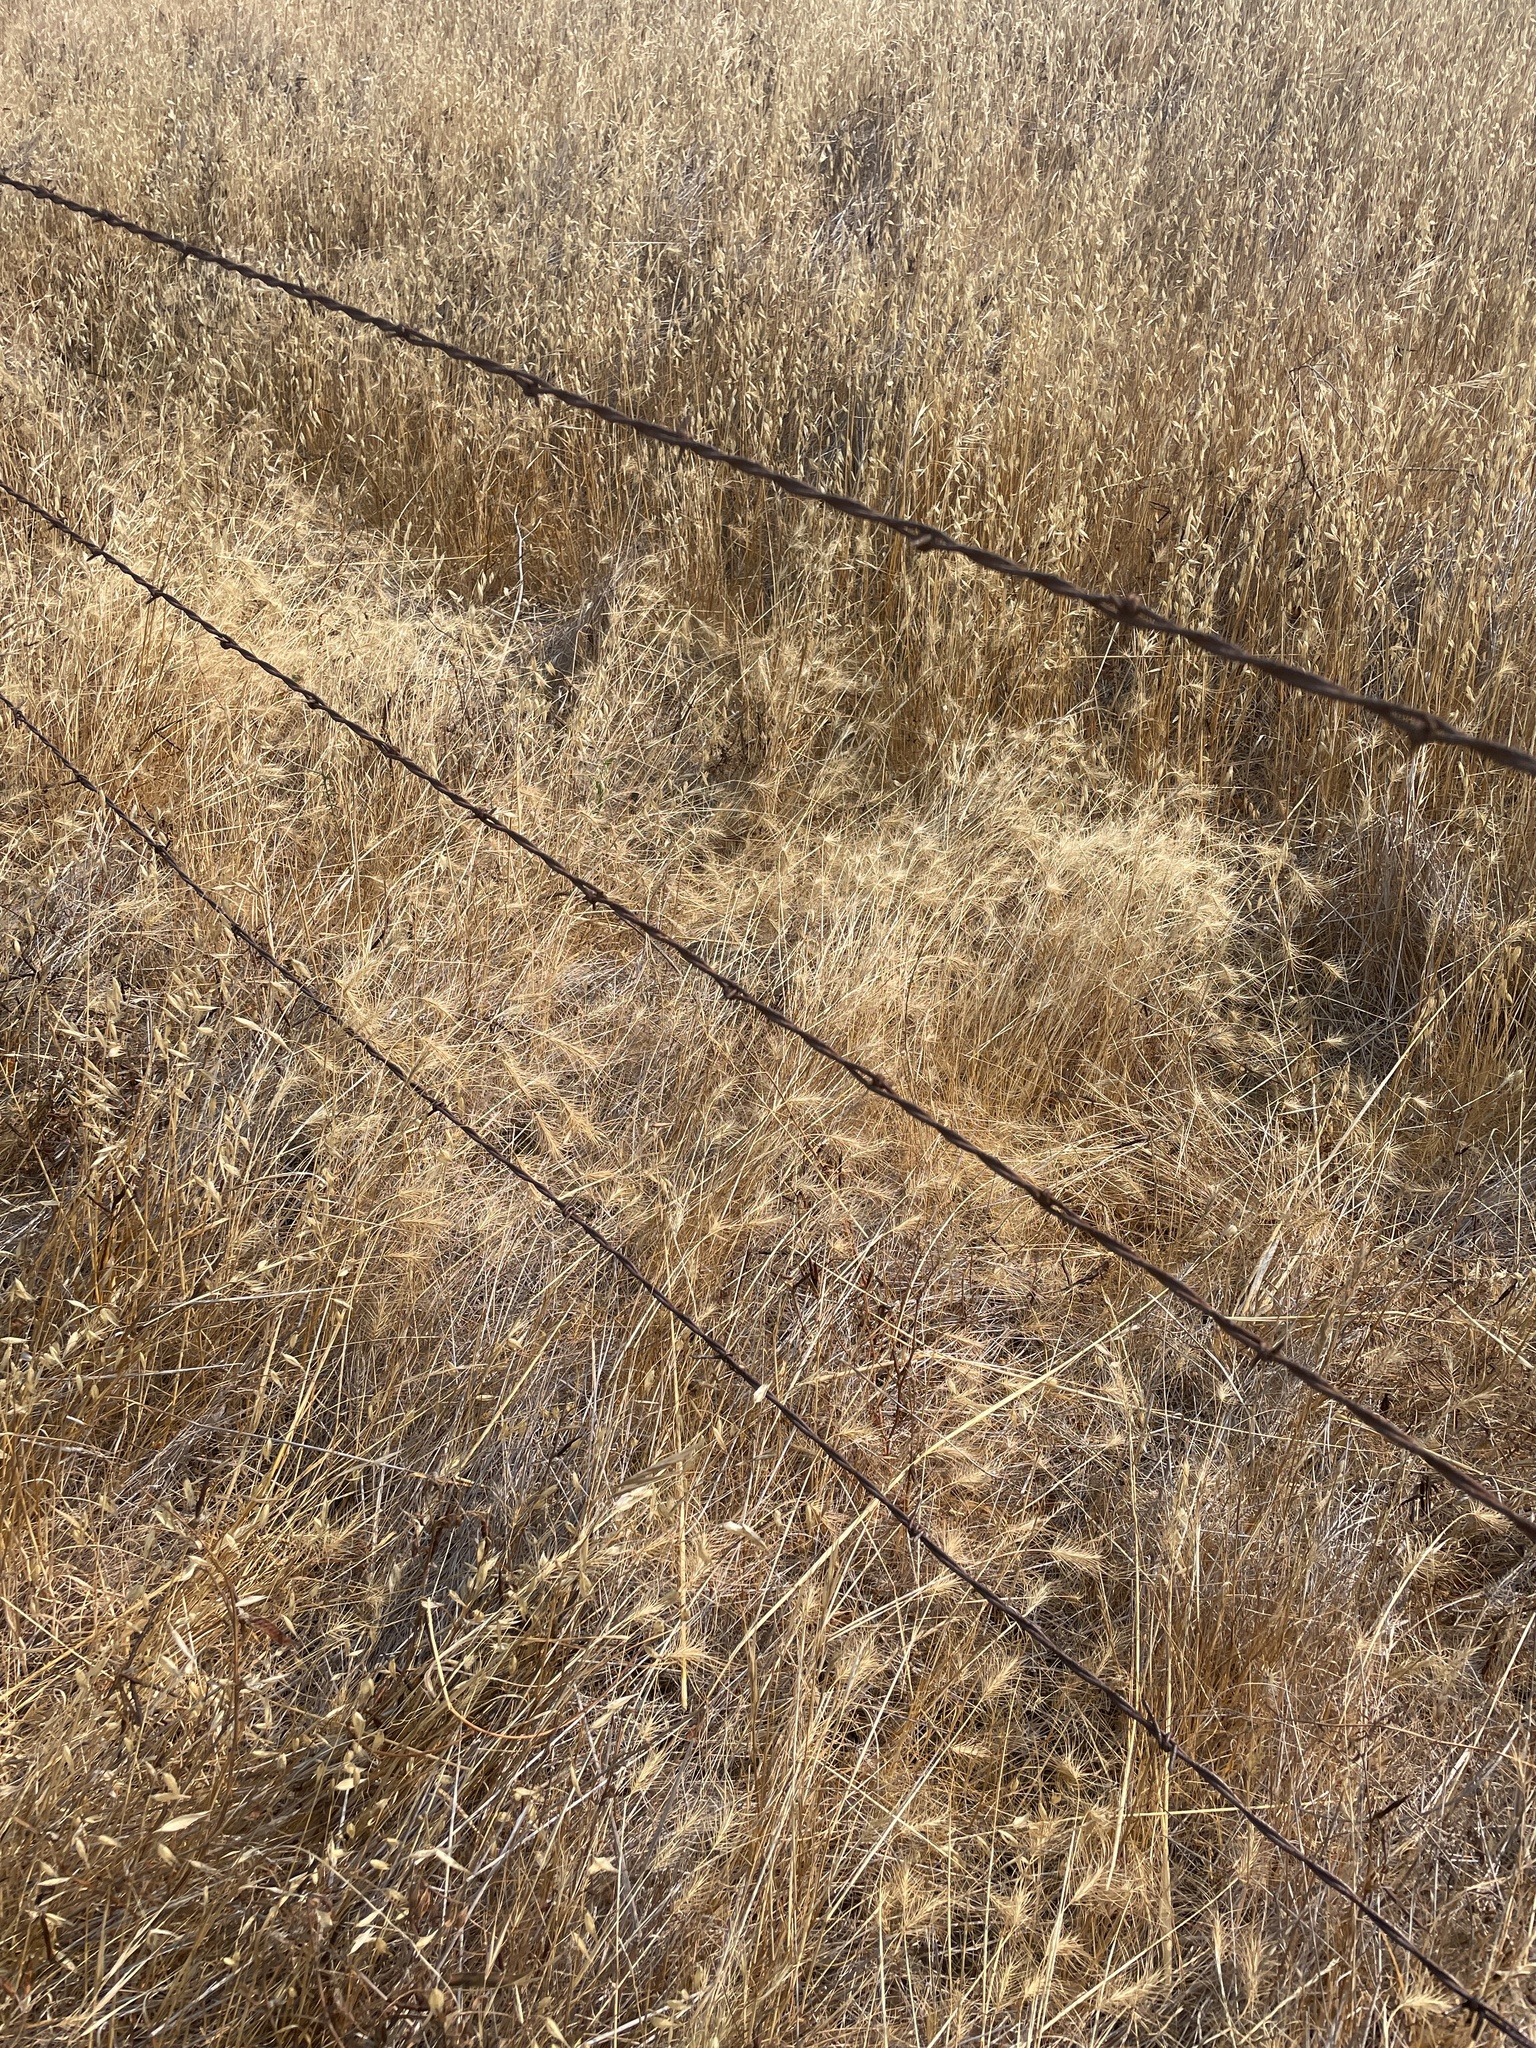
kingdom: Plantae
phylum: Tracheophyta
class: Liliopsida
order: Poales
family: Poaceae
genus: Taeniatherum
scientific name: Taeniatherum caput-medusae
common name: Medusahead
